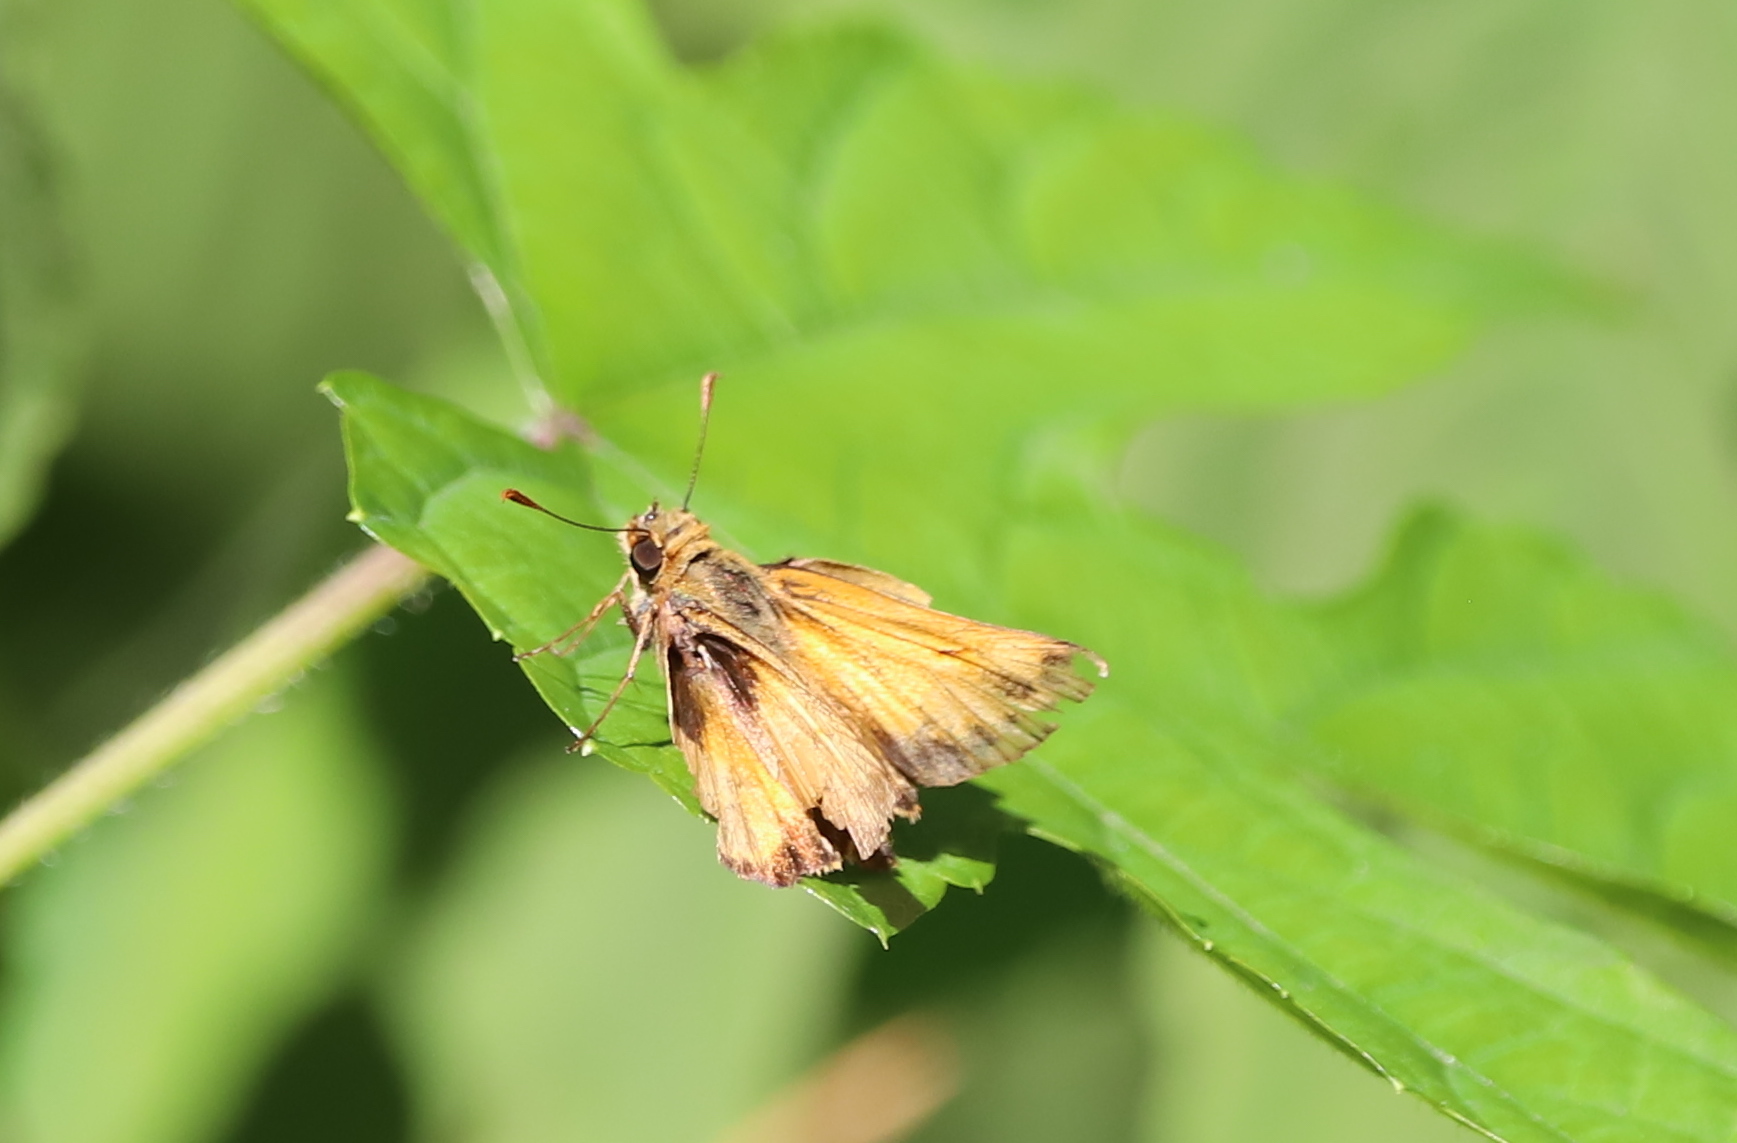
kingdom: Animalia
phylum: Arthropoda
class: Insecta
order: Lepidoptera
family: Hesperiidae
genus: Lon
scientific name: Lon zabulon
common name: Zabulon skipper
